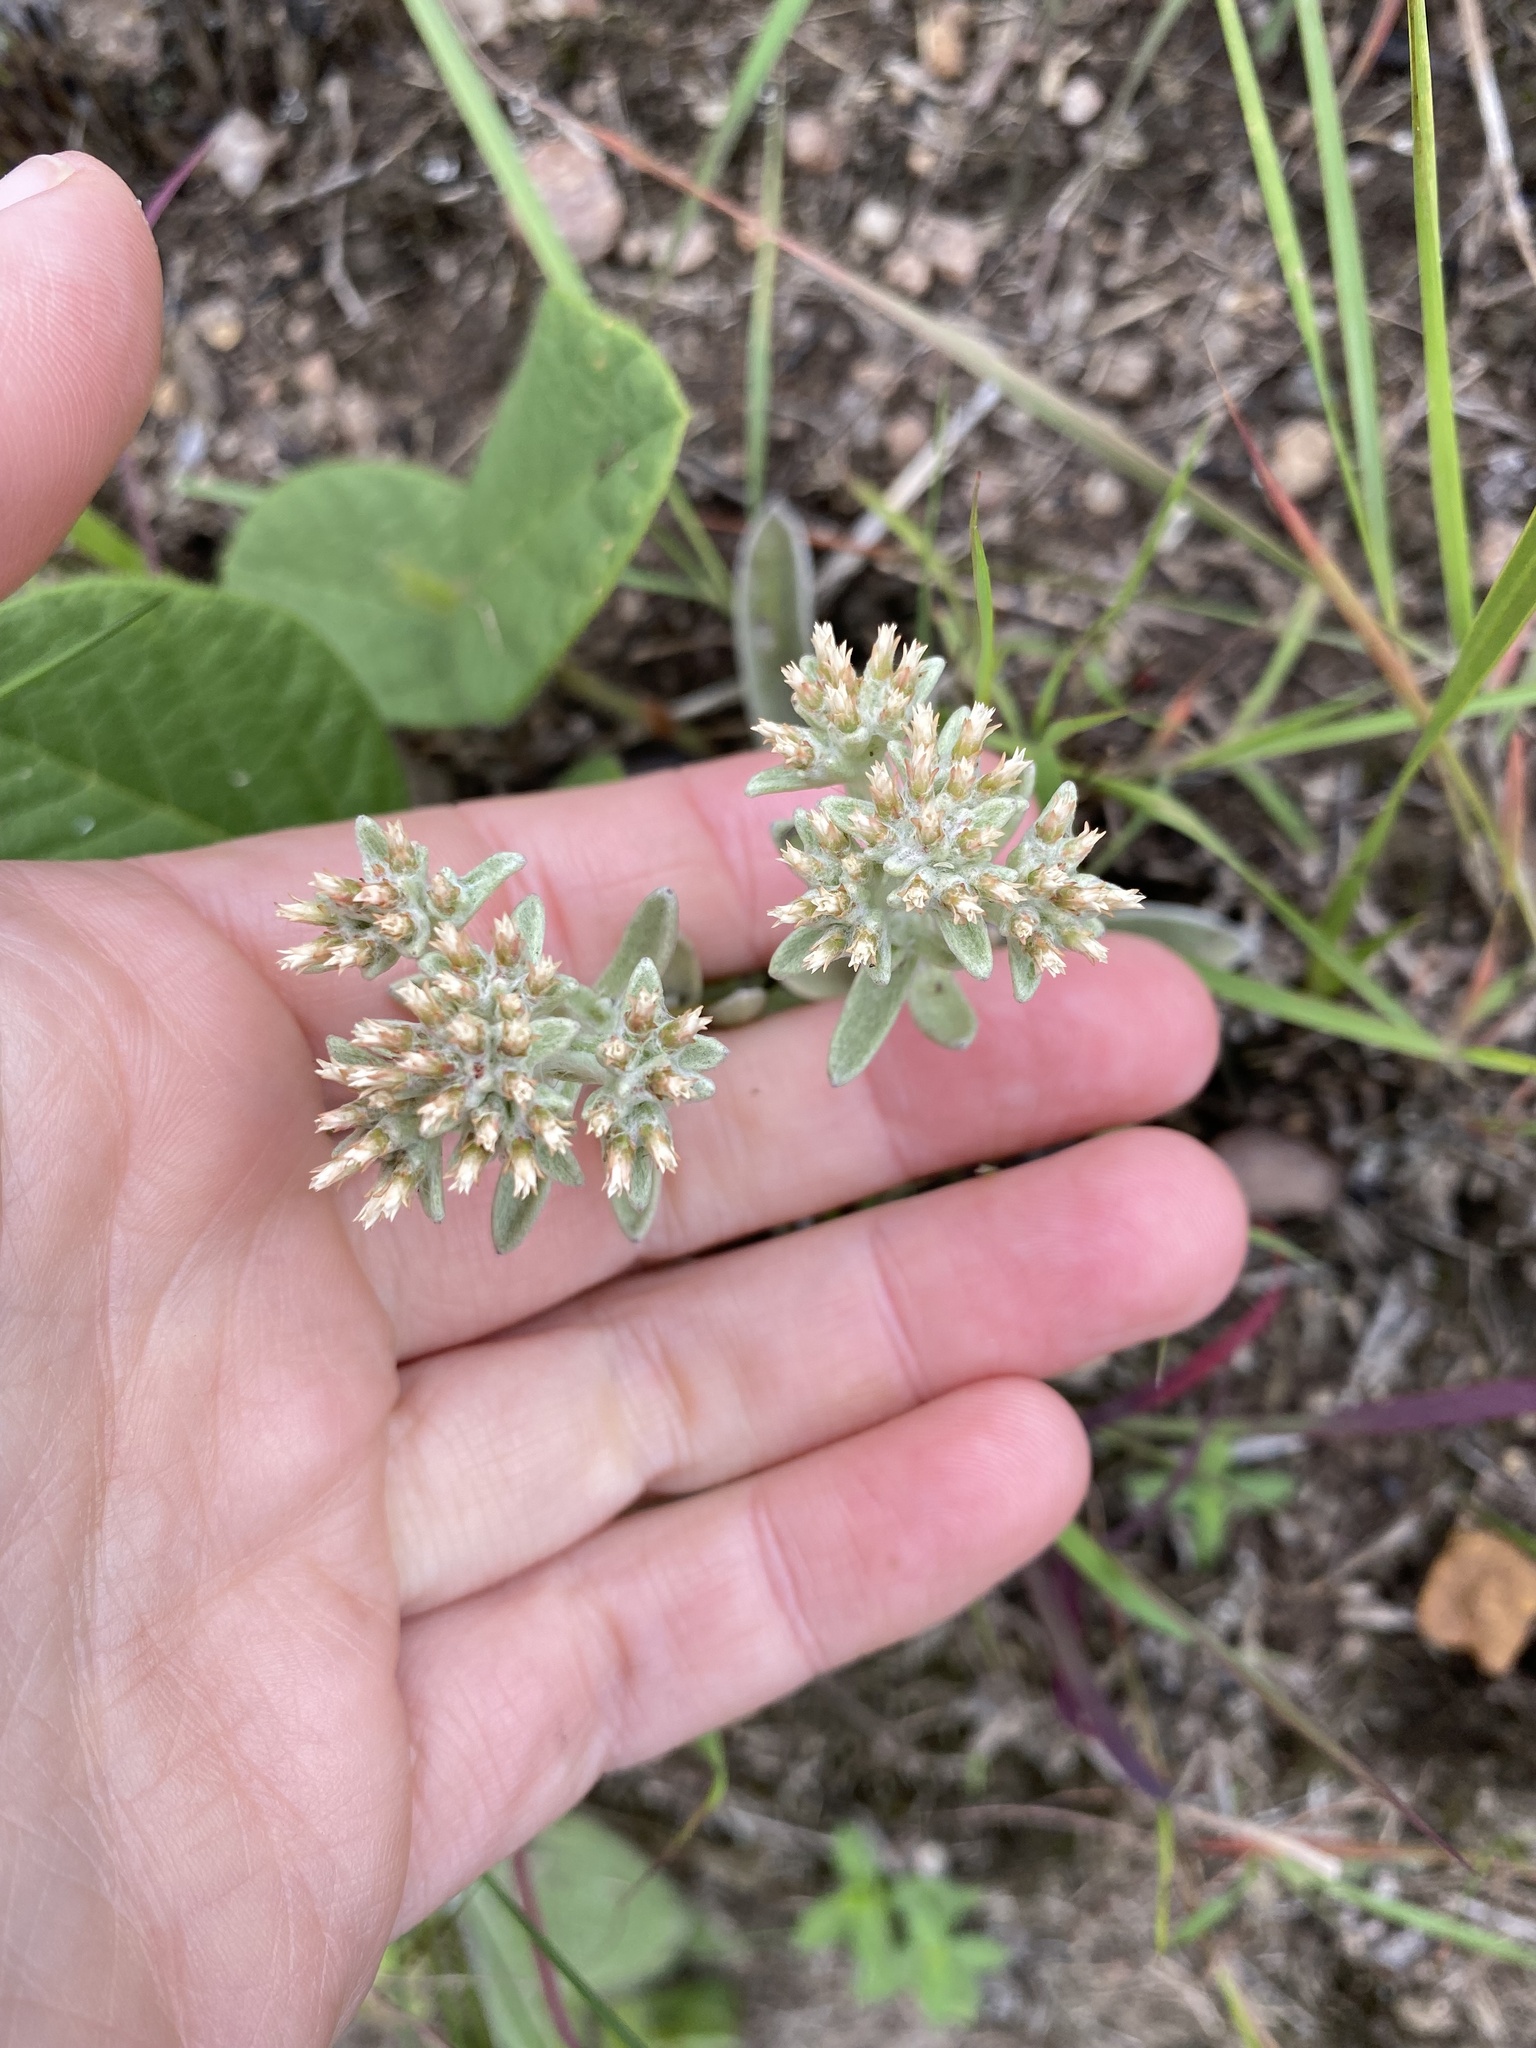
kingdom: Plantae
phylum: Tracheophyta
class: Magnoliopsida
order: Asterales
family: Asteraceae
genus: Helichrysum
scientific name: Helichrysum spiralepis
